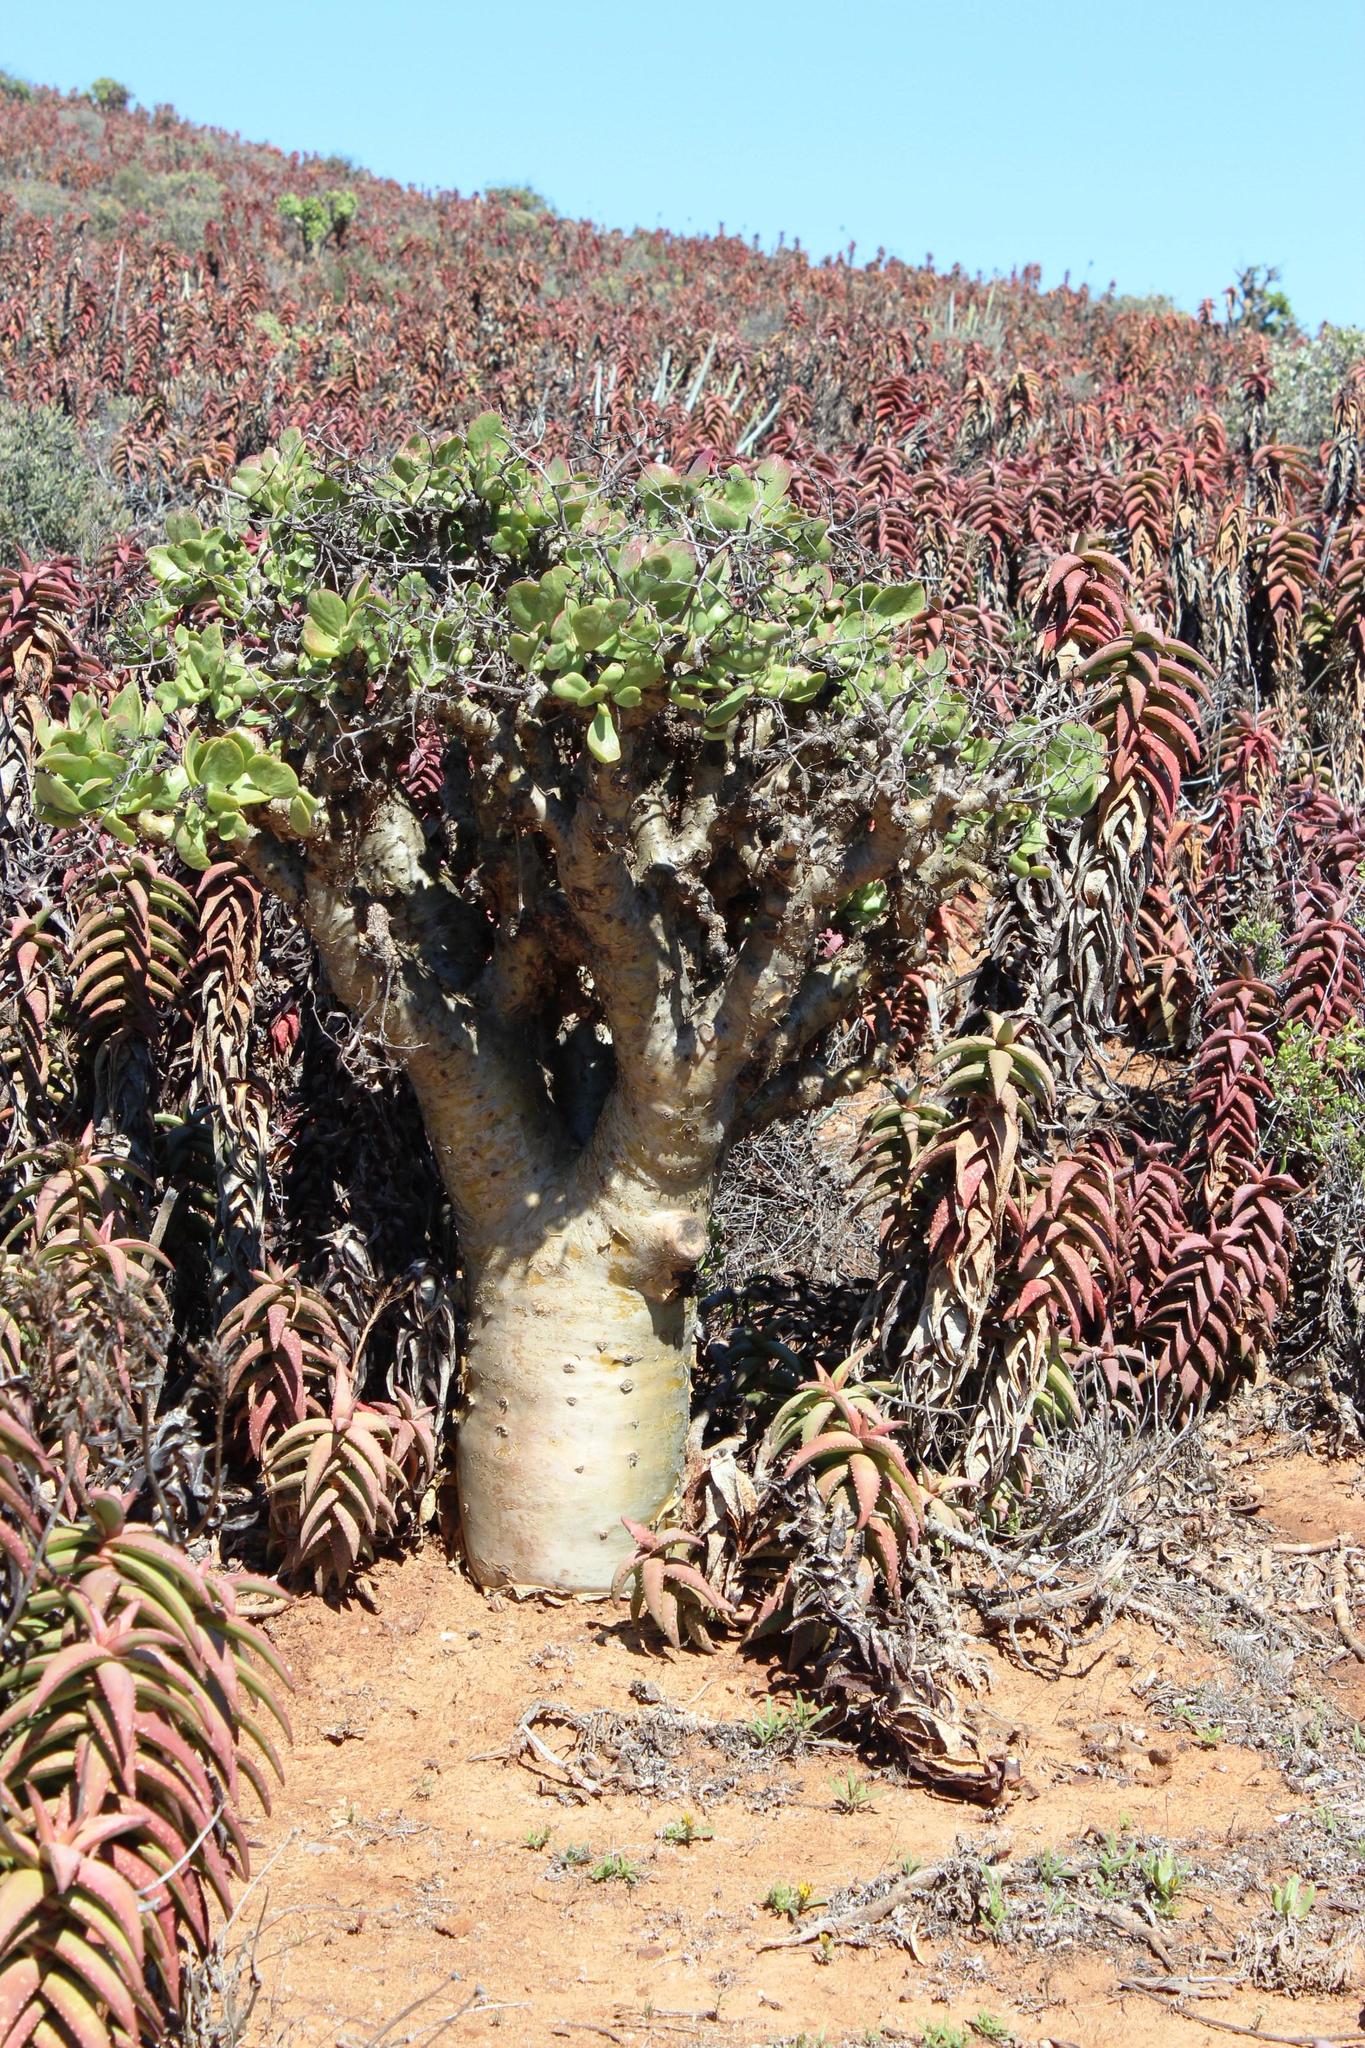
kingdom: Plantae
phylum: Tracheophyta
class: Magnoliopsida
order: Saxifragales
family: Crassulaceae
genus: Tylecodon
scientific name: Tylecodon paniculatus
